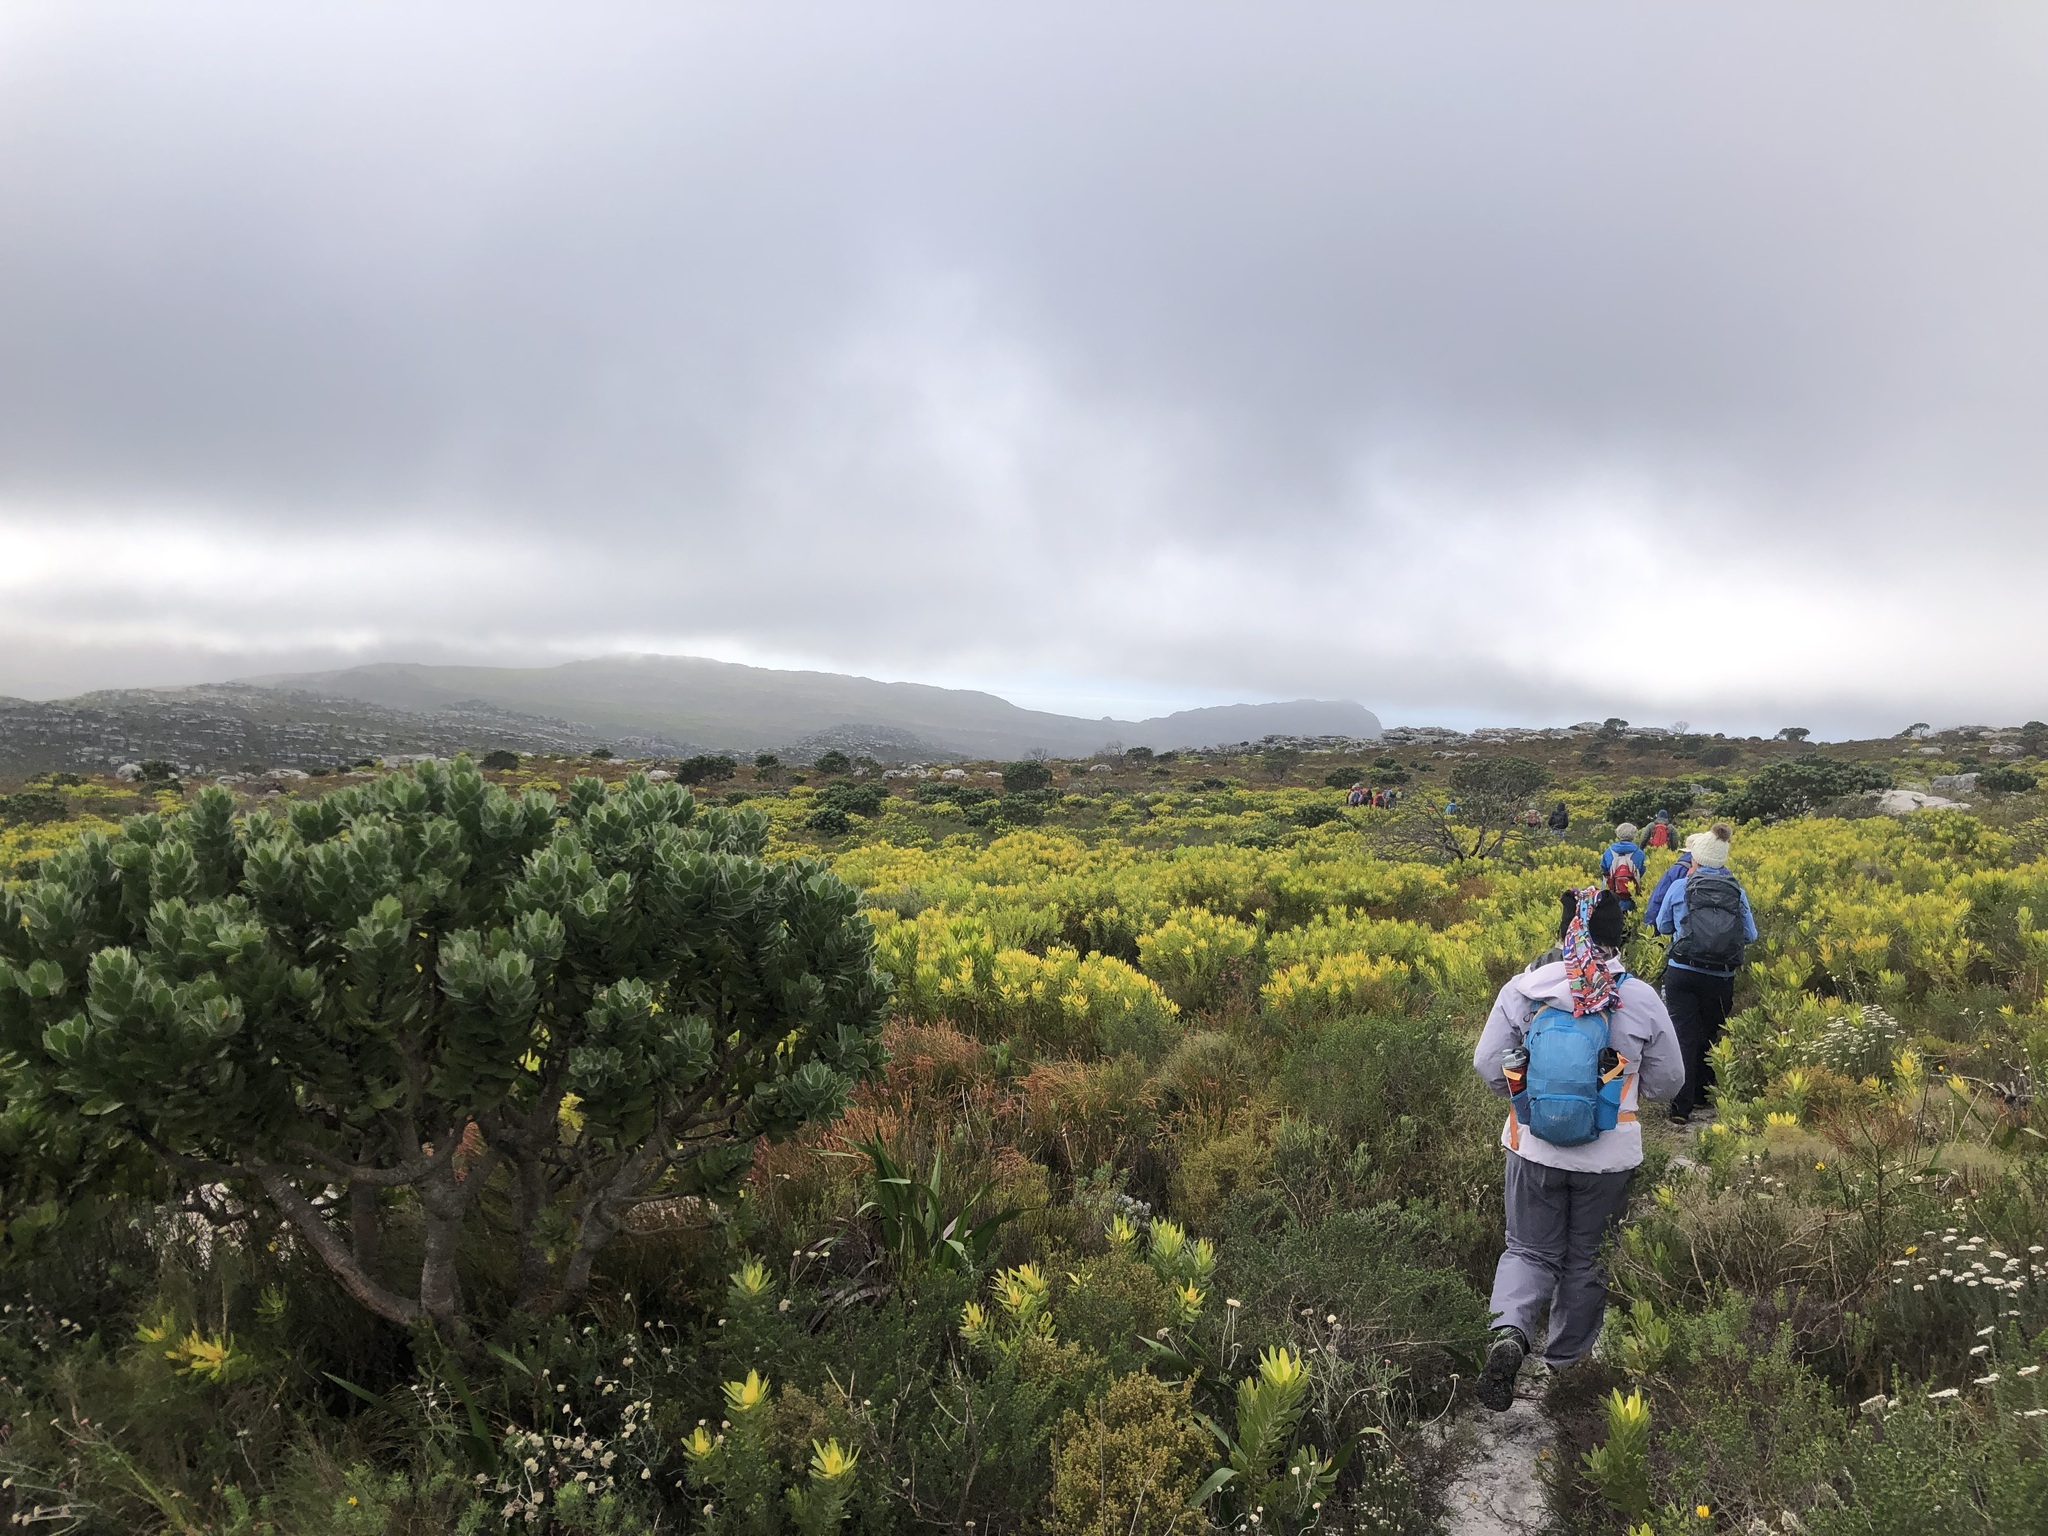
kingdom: Plantae
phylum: Tracheophyta
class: Magnoliopsida
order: Proteales
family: Proteaceae
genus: Leucospermum
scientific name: Leucospermum conocarpodendron
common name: Tree pincushion
